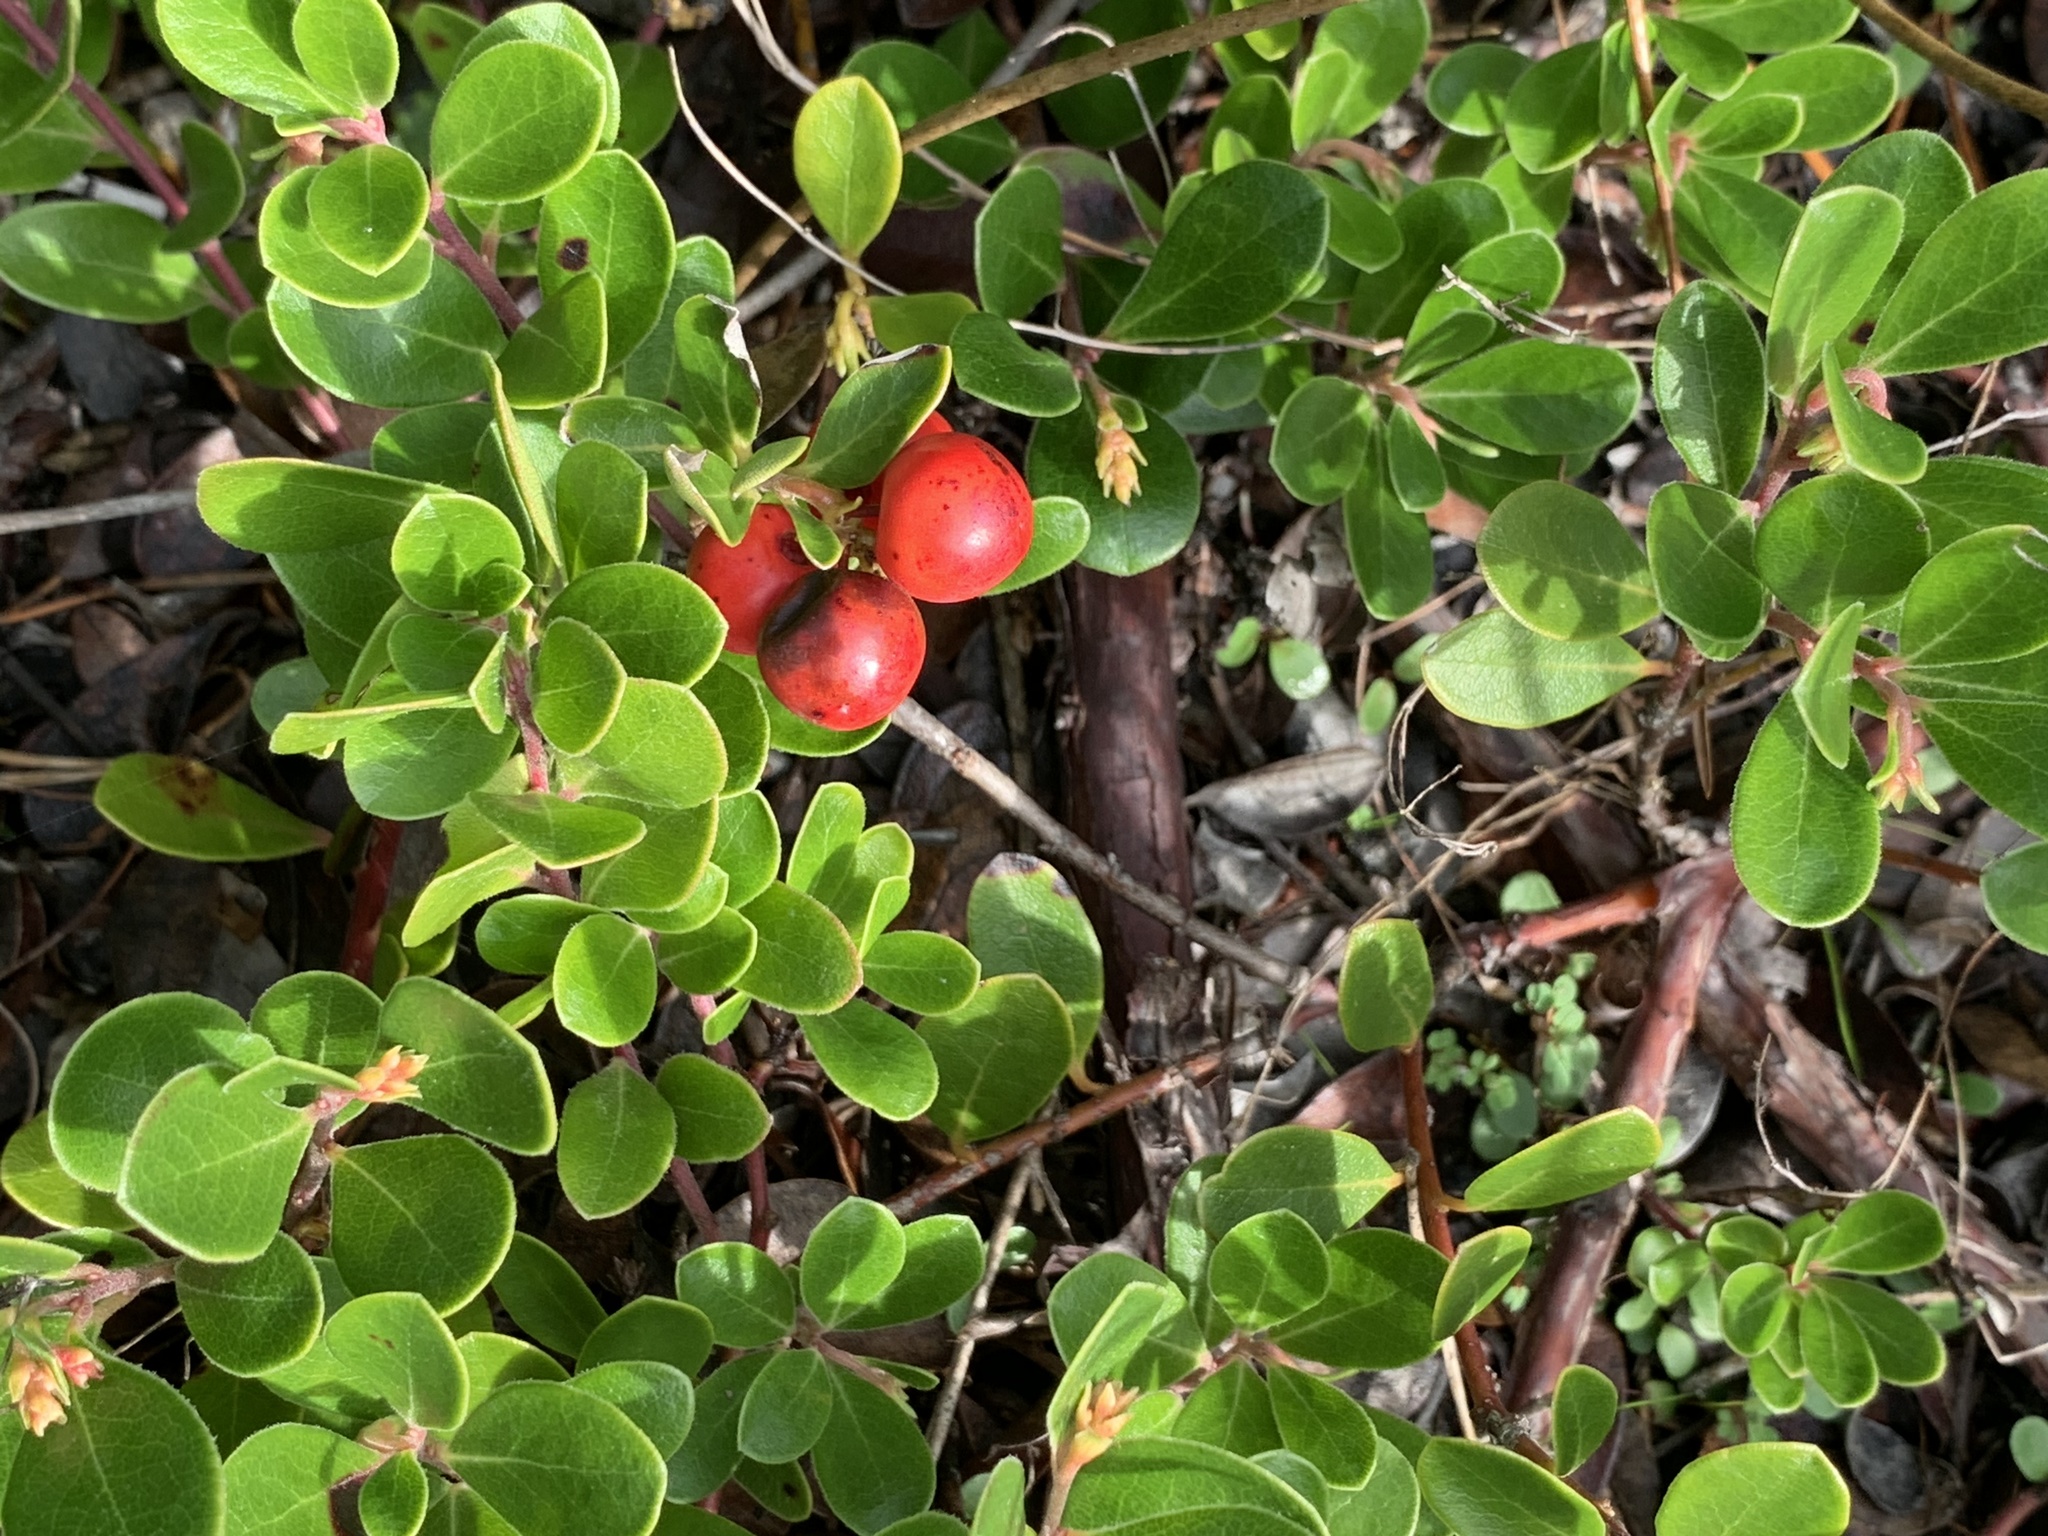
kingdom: Plantae
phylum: Tracheophyta
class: Magnoliopsida
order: Ericales
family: Ericaceae
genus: Arctostaphylos
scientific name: Arctostaphylos uva-ursi
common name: Bearberry
